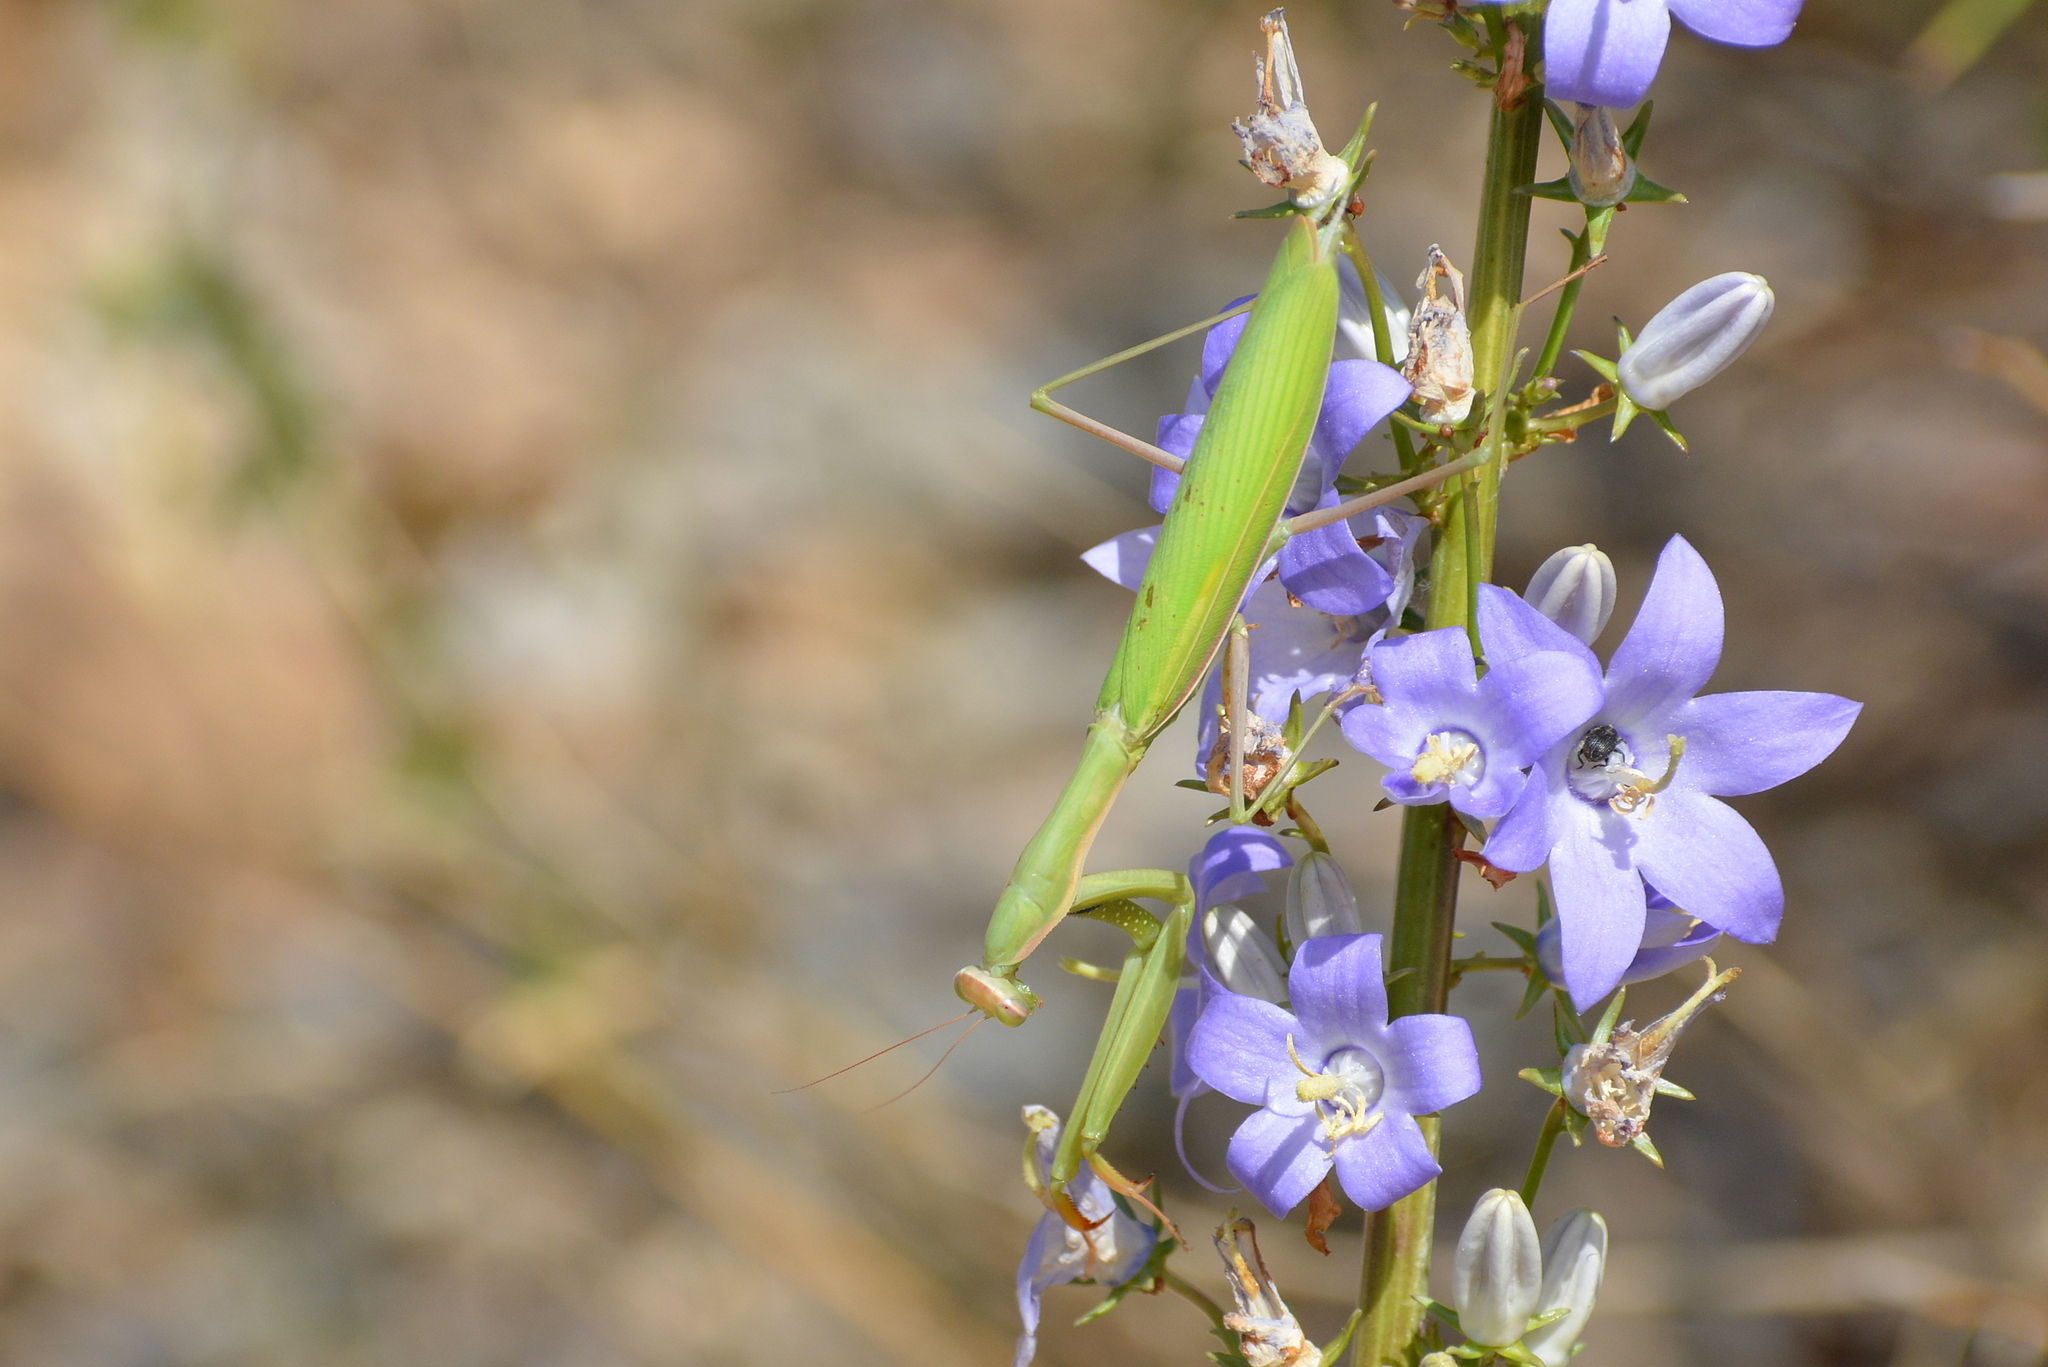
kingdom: Animalia
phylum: Arthropoda
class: Insecta
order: Mantodea
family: Mantidae
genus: Mantis
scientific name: Mantis religiosa
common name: Praying mantis
